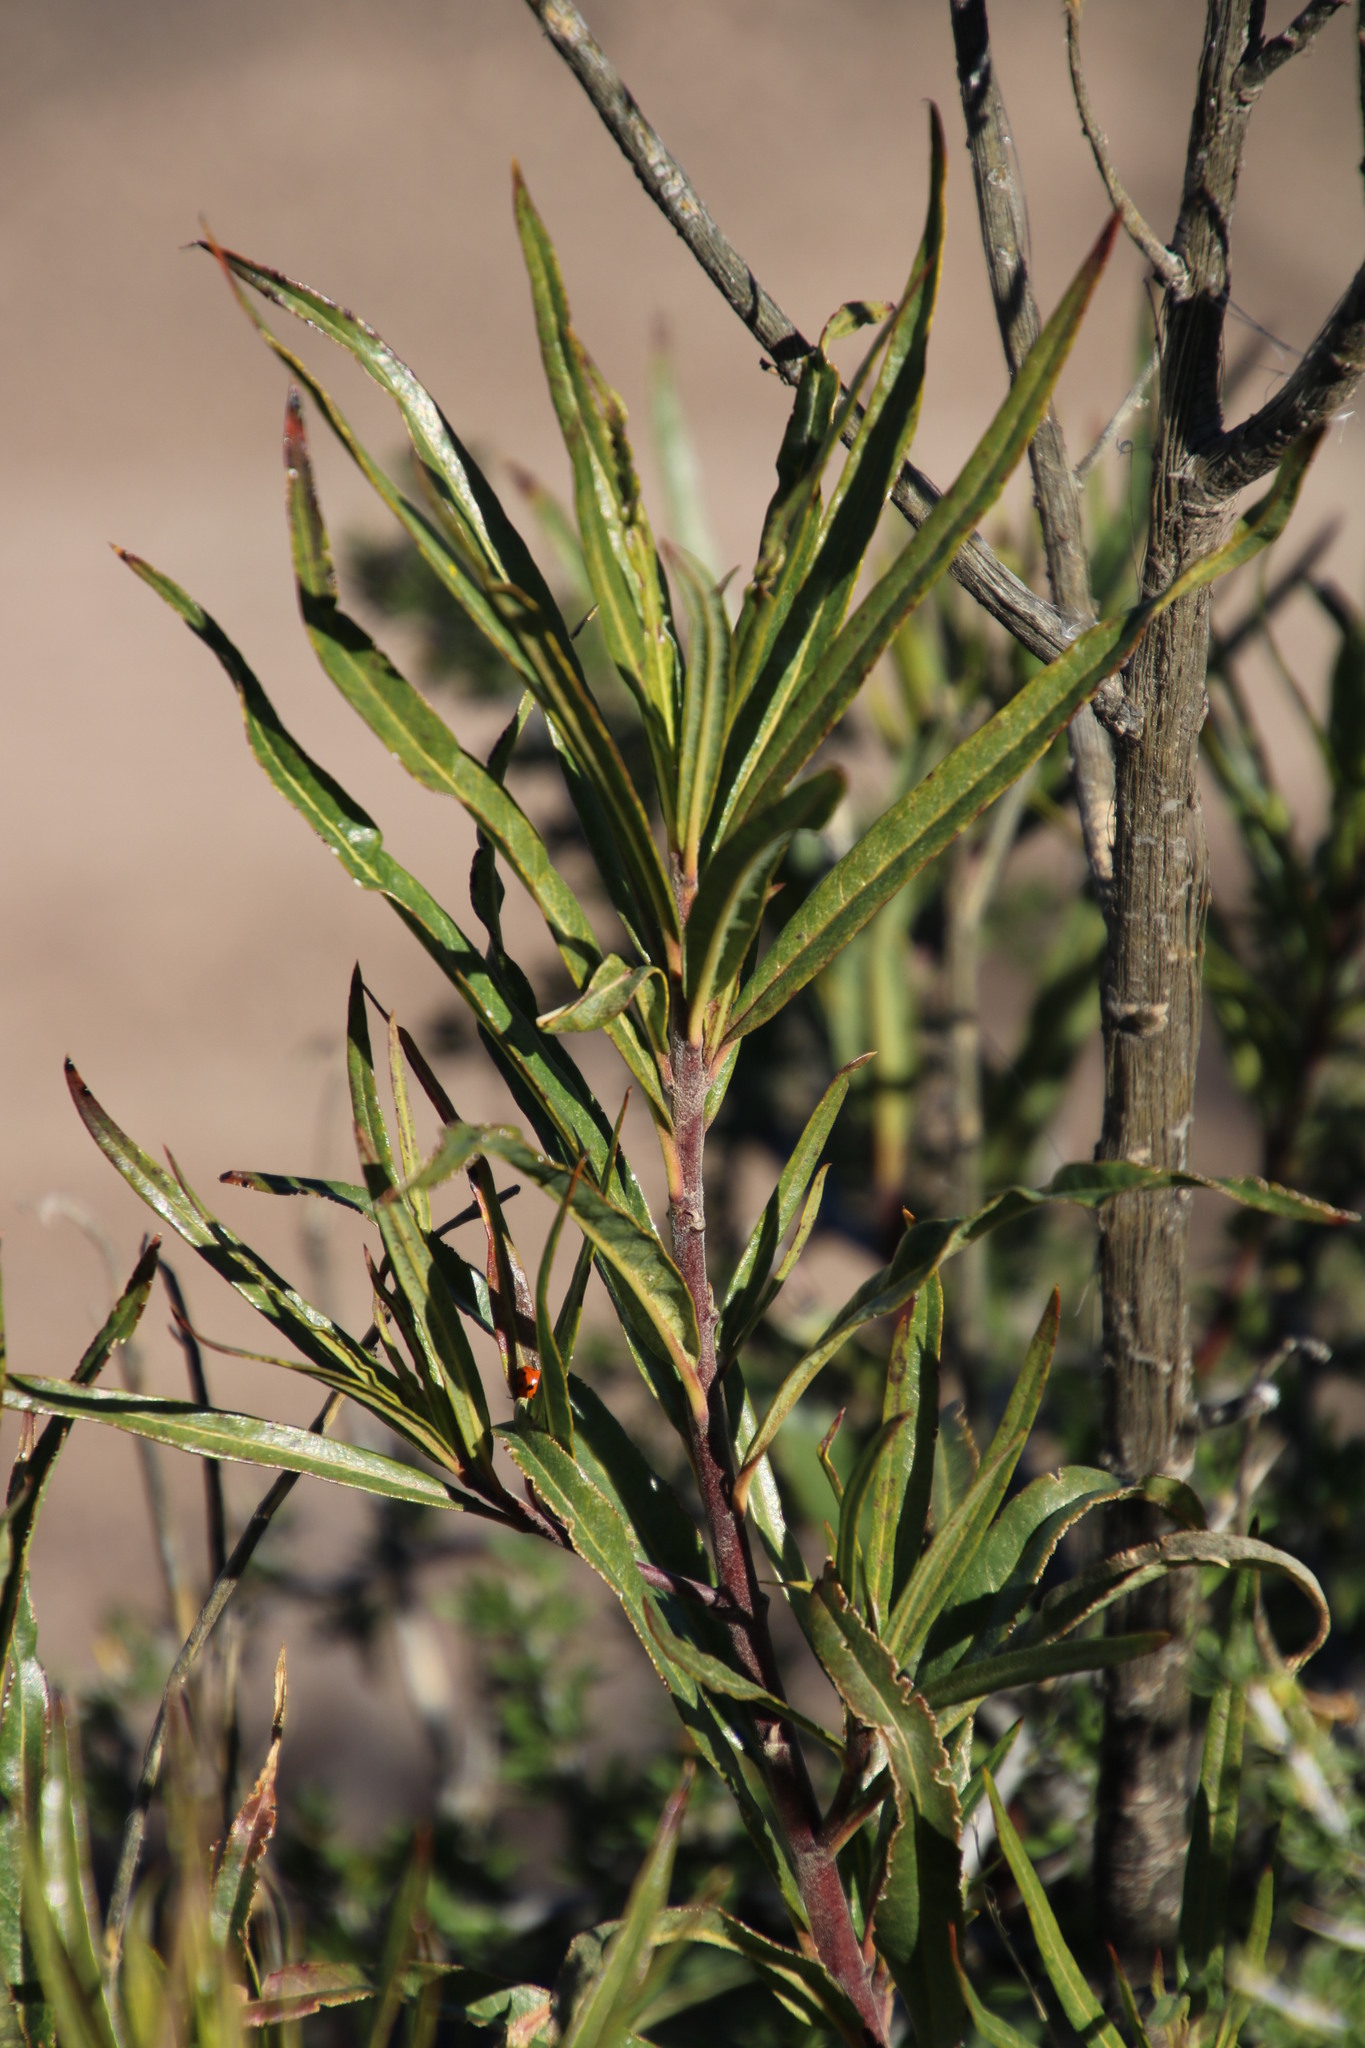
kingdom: Plantae
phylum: Tracheophyta
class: Magnoliopsida
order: Gentianales
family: Apocynaceae
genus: Gomphocarpus
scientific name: Gomphocarpus fruticosus
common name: Milkweed
